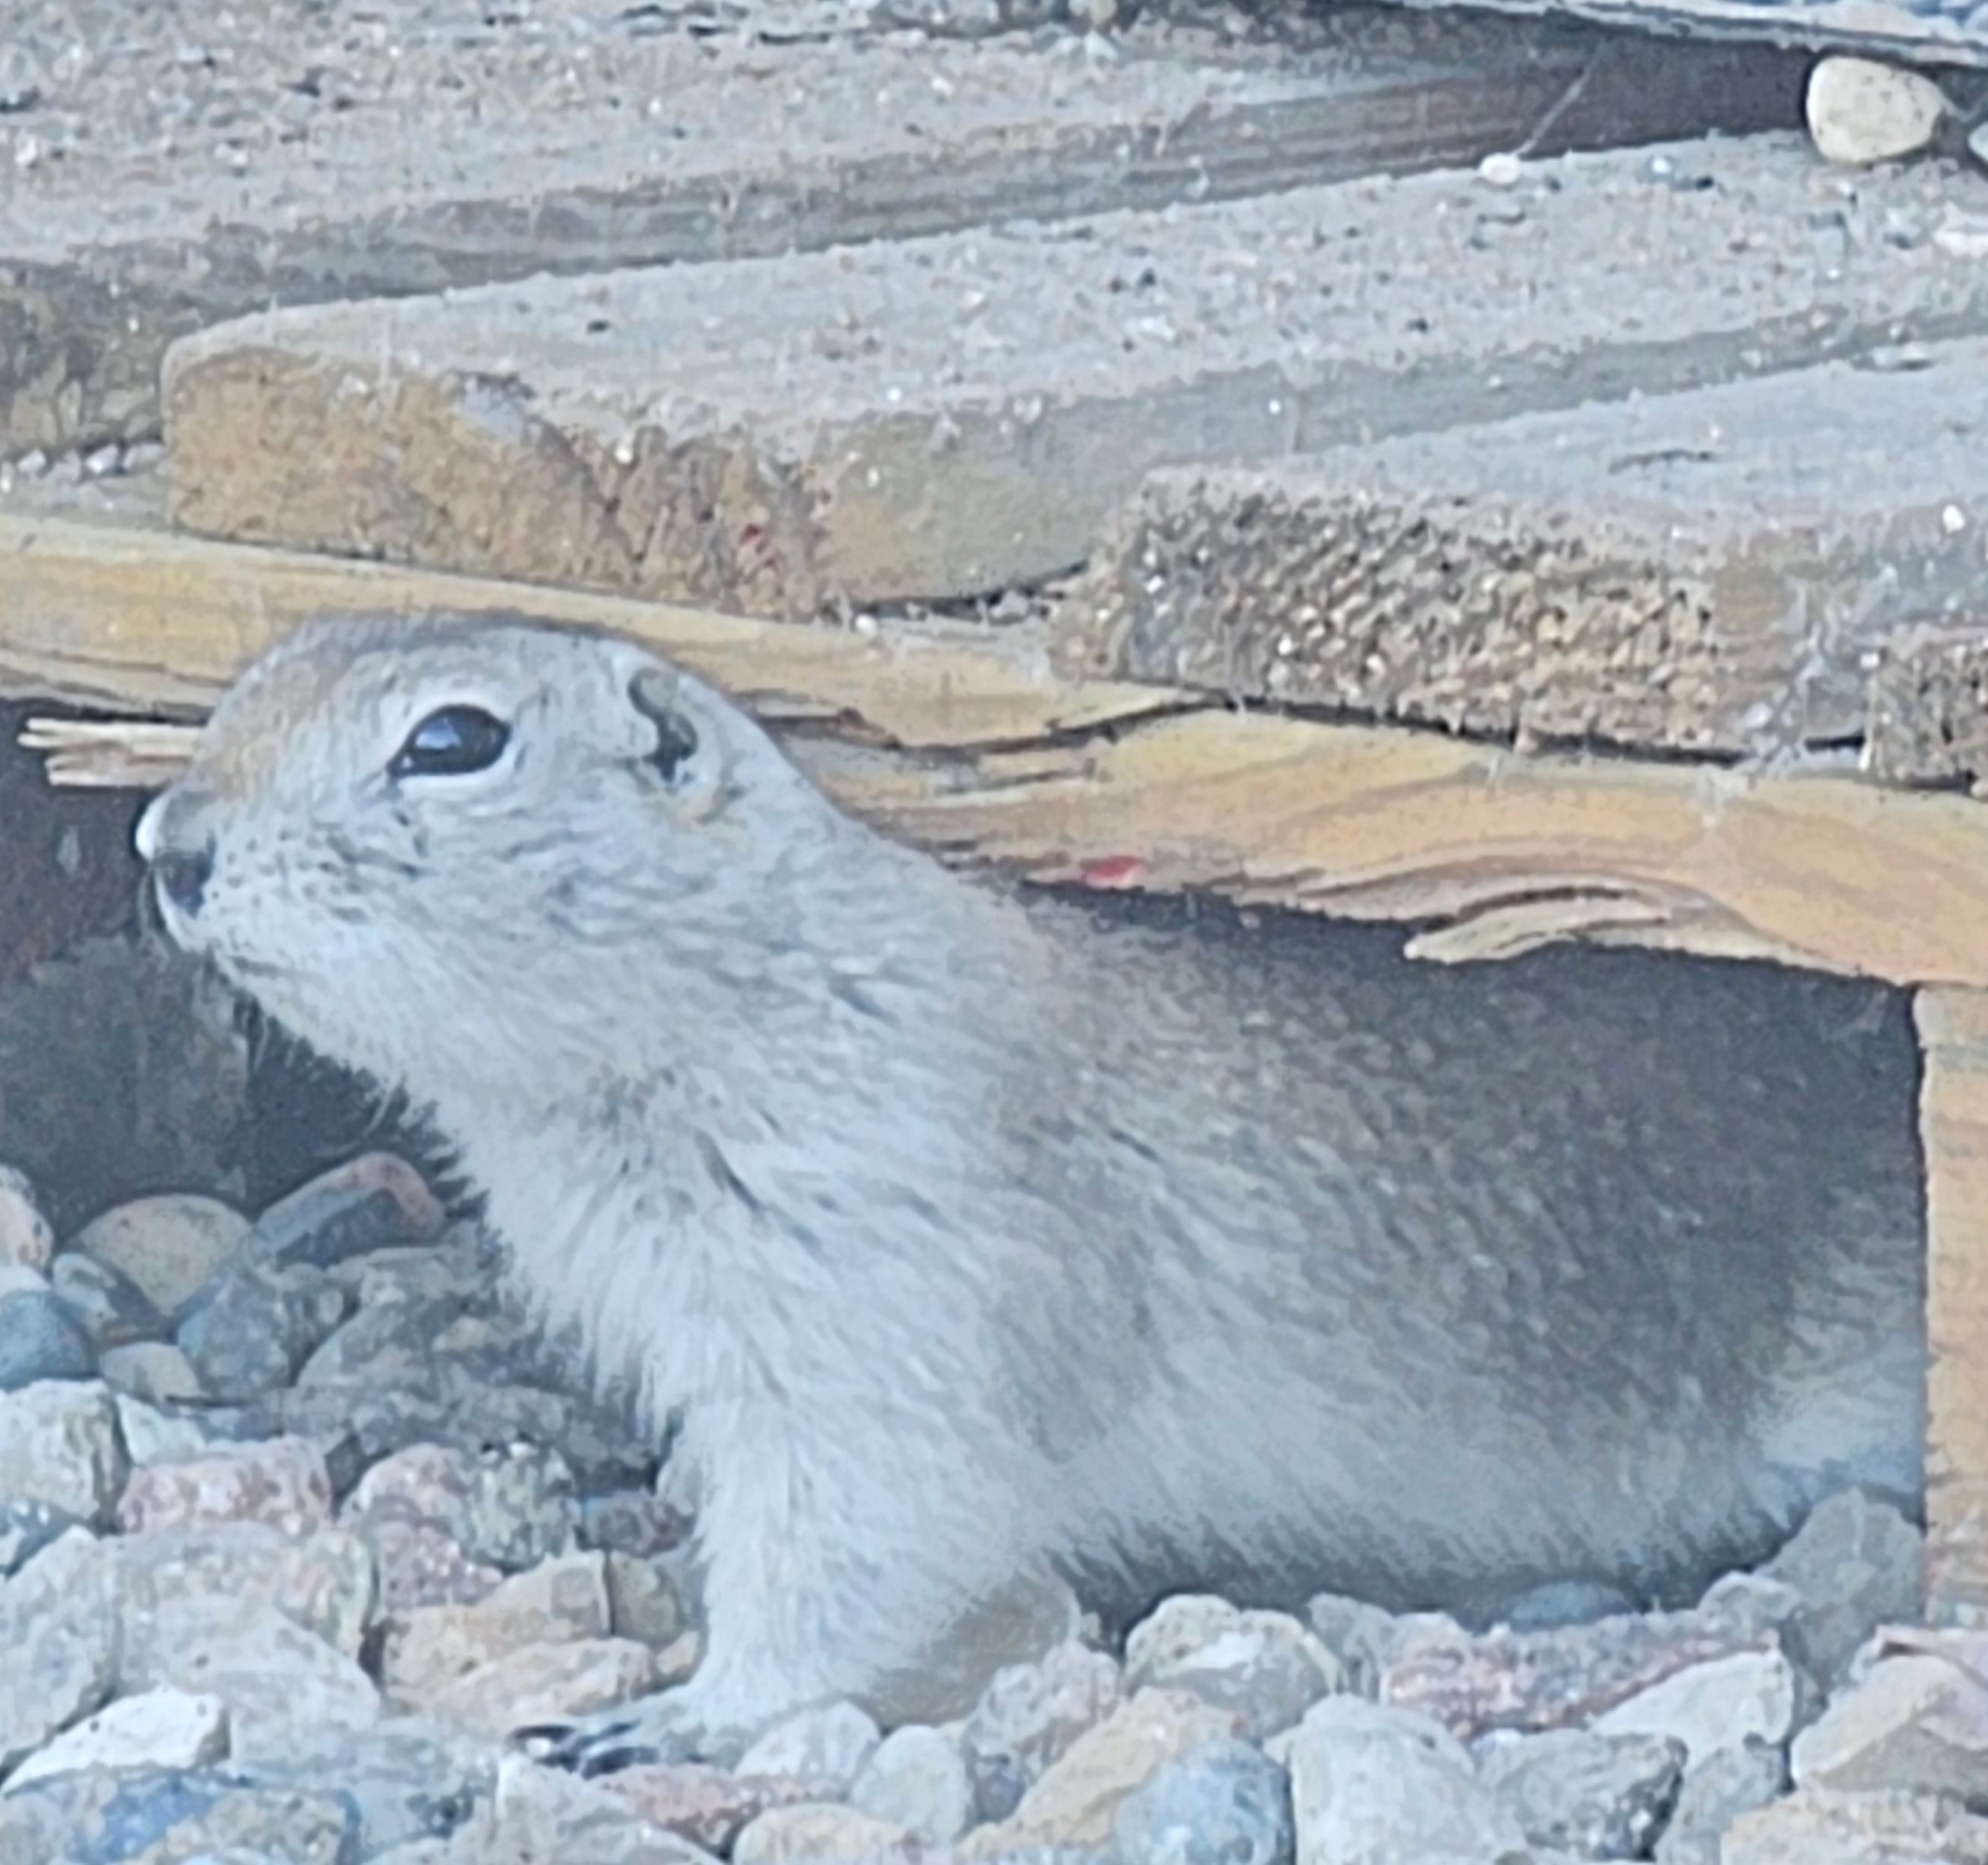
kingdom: Animalia
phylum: Chordata
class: Mammalia
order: Rodentia
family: Sciuridae
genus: Urocitellus
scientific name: Urocitellus richardsonii
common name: Richardson's ground squirrel
